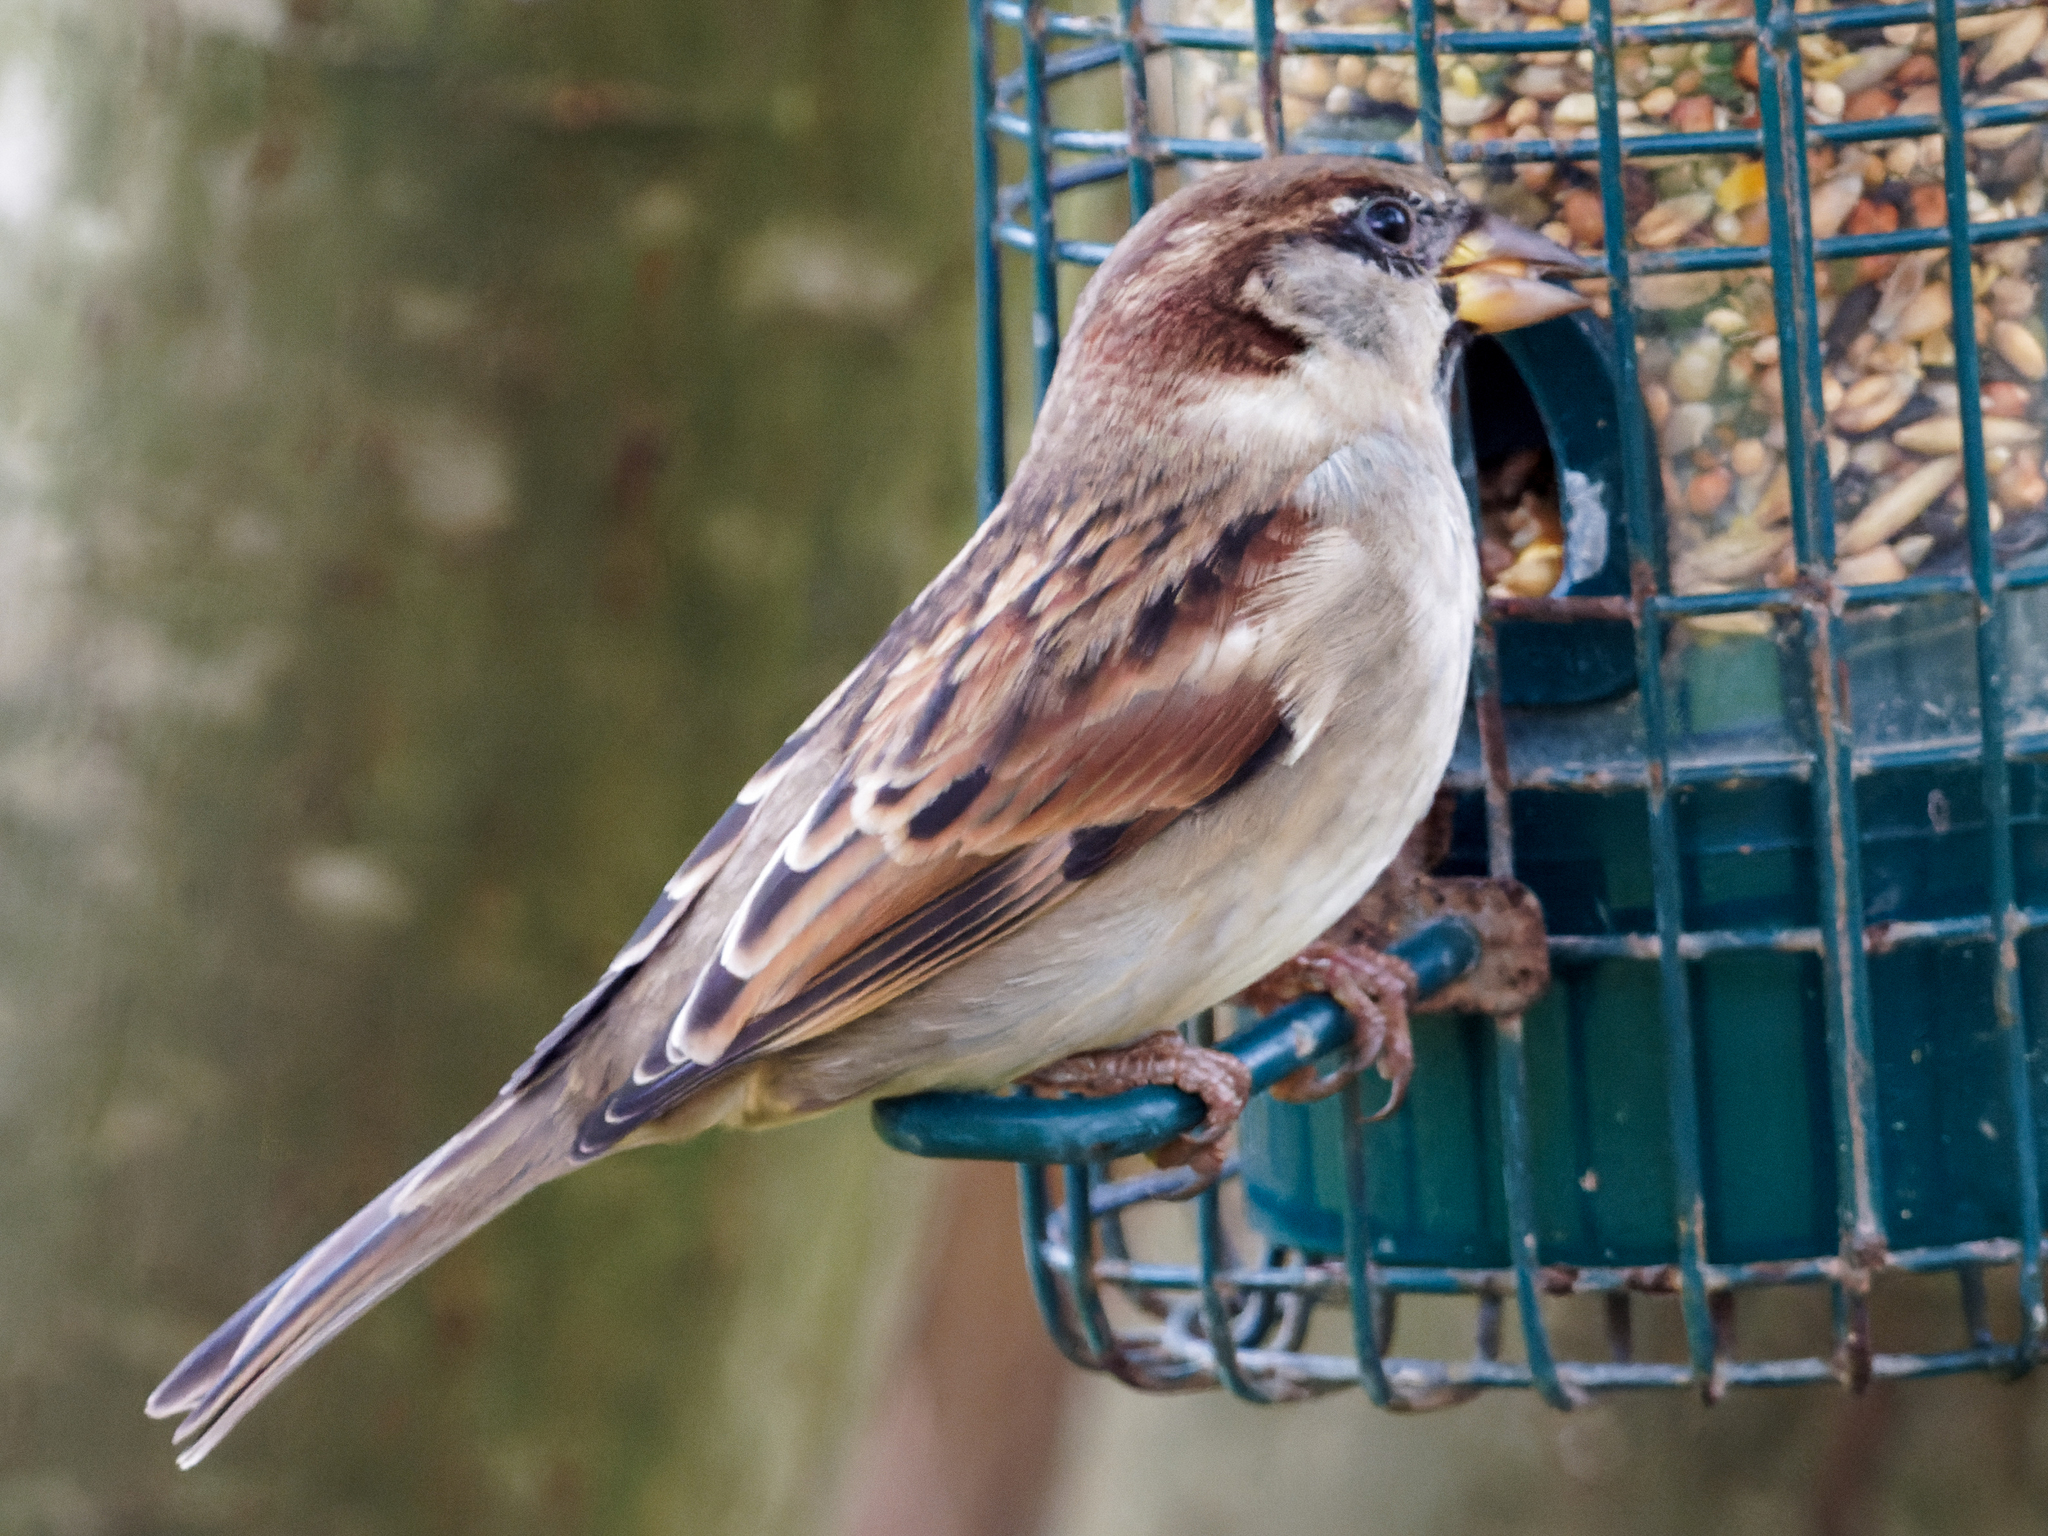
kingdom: Animalia
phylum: Chordata
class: Aves
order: Passeriformes
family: Passeridae
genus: Passer
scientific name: Passer domesticus
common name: House sparrow
